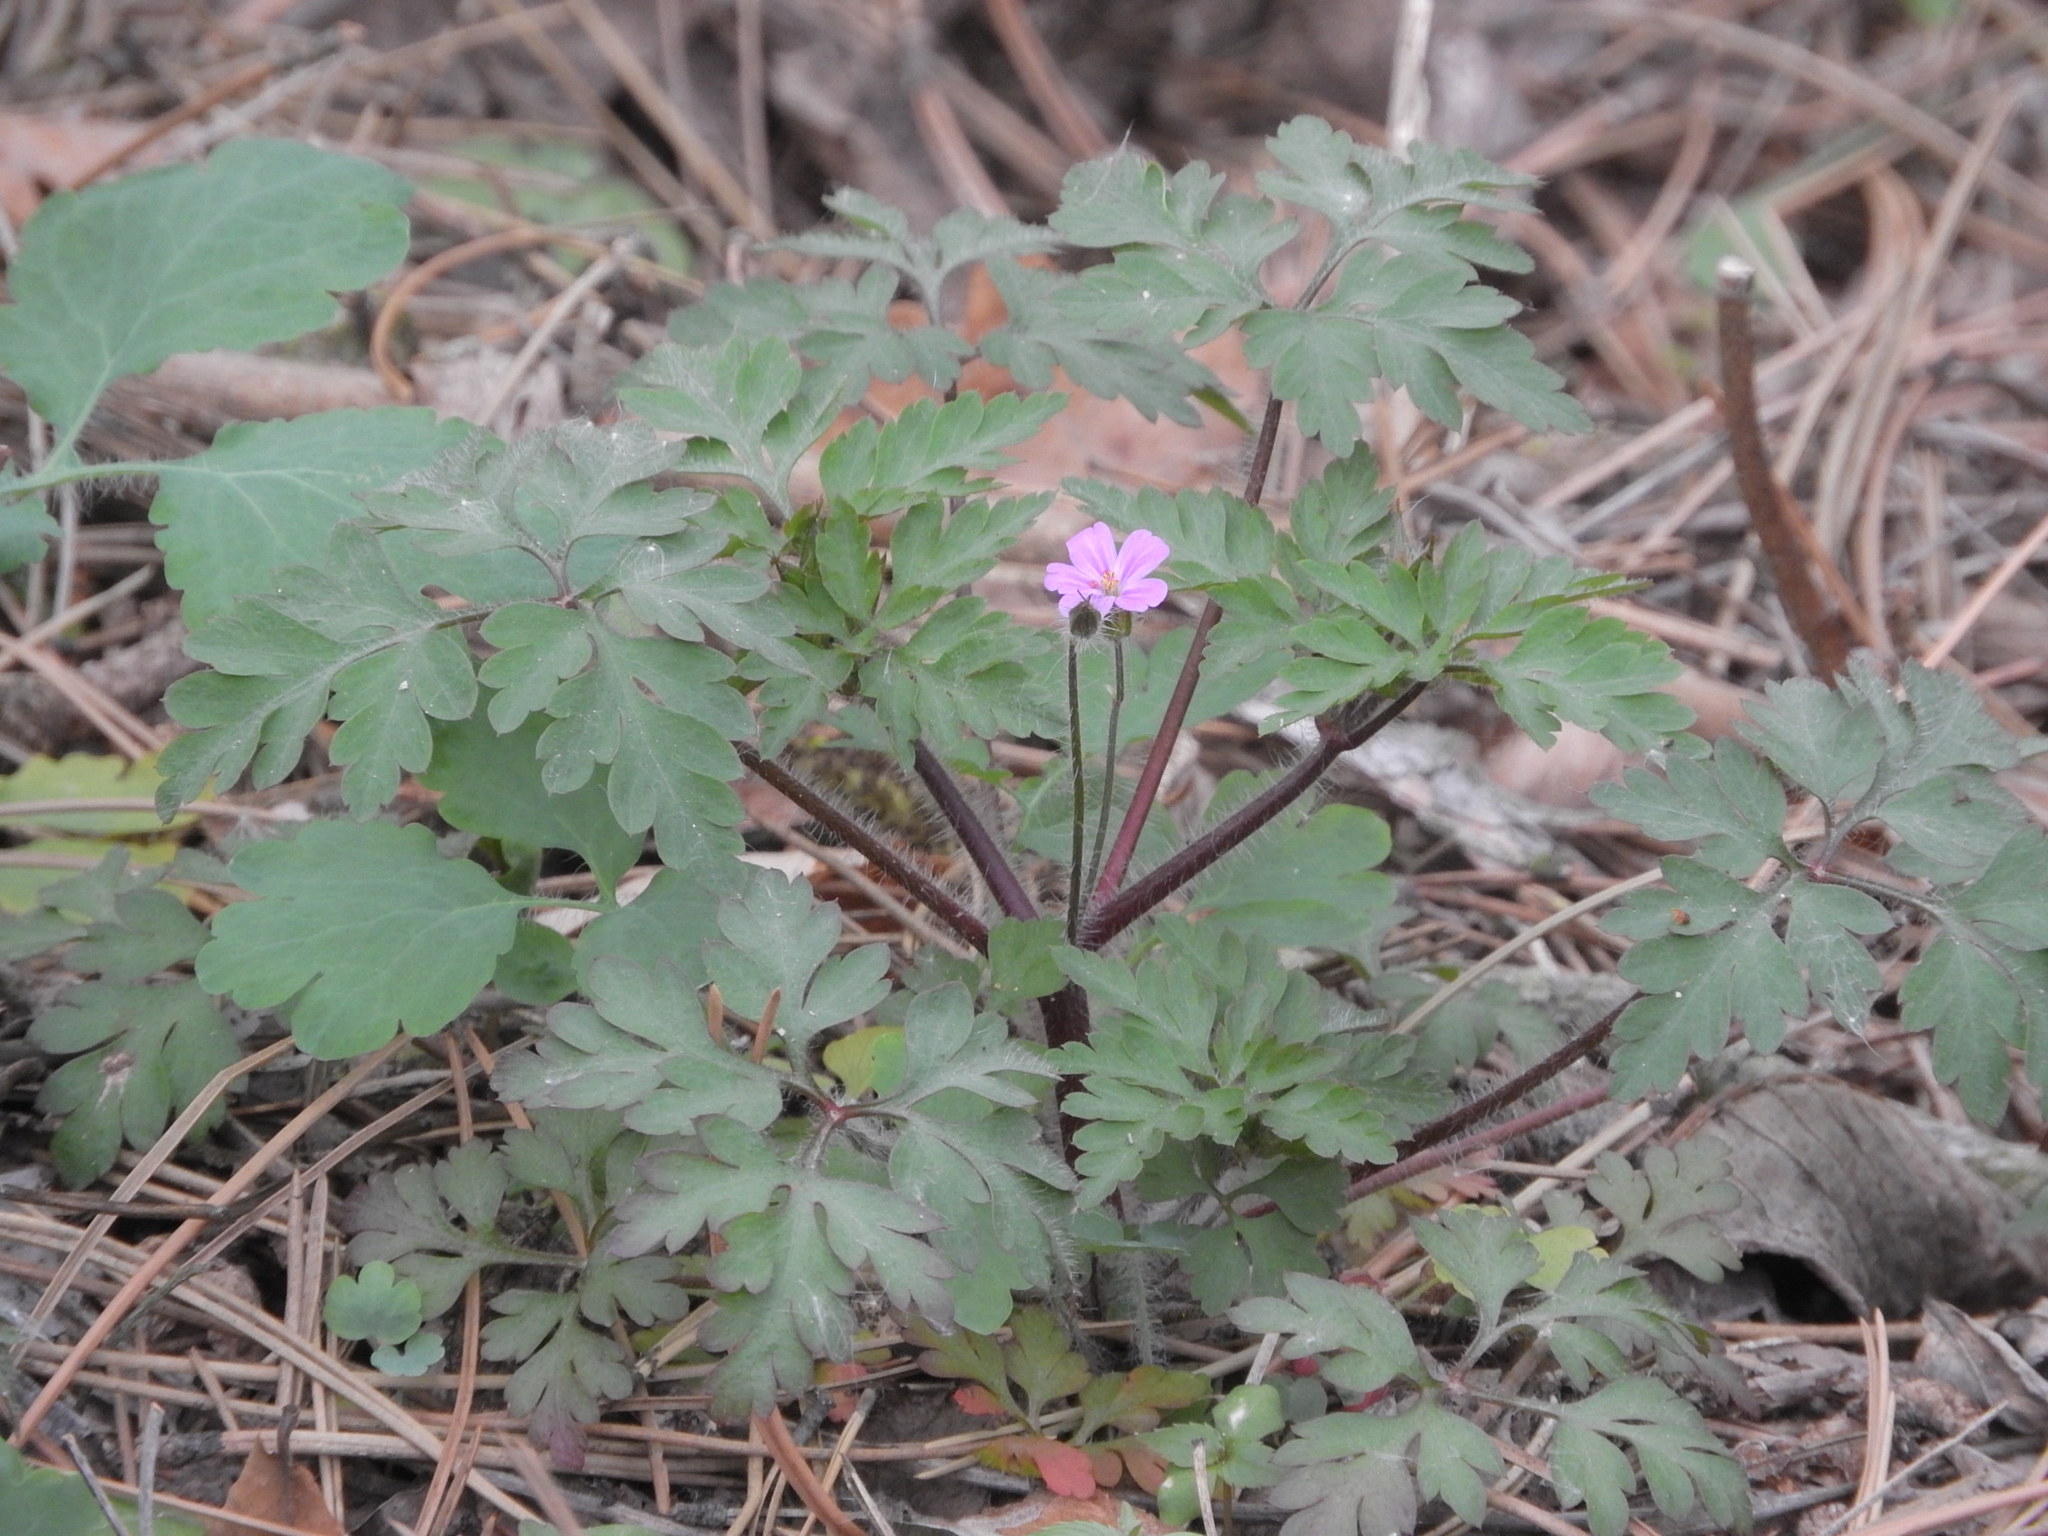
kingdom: Plantae
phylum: Tracheophyta
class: Magnoliopsida
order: Geraniales
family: Geraniaceae
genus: Geranium
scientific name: Geranium robertianum
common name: Herb-robert
